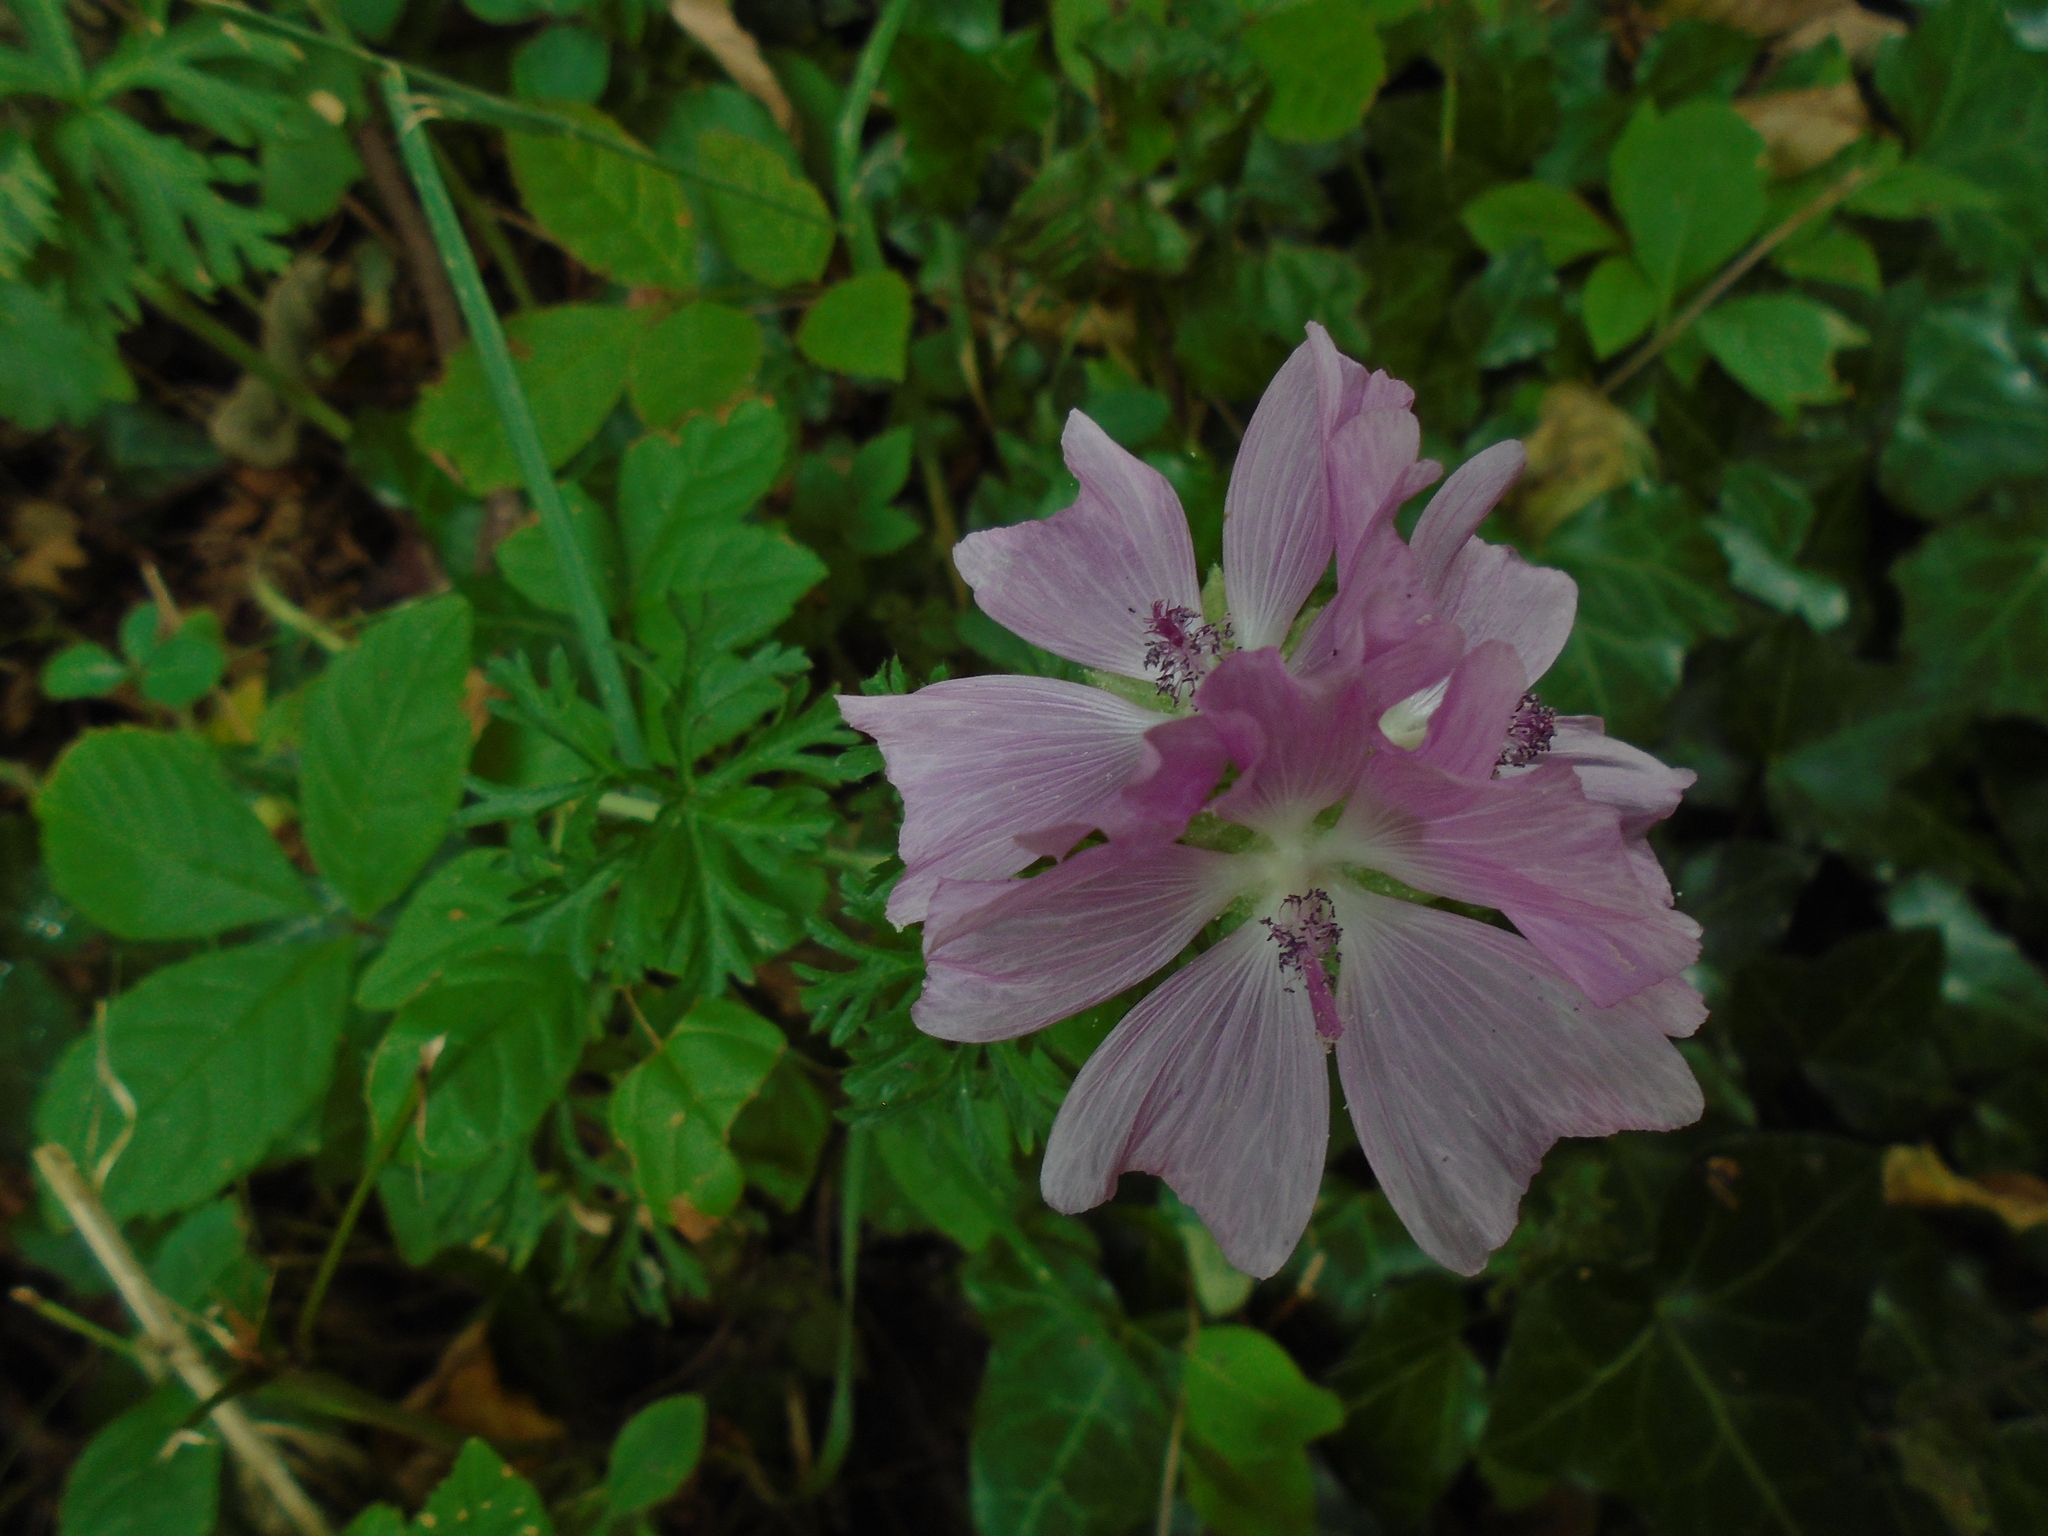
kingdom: Plantae
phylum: Tracheophyta
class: Magnoliopsida
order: Malvales
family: Malvaceae
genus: Malva
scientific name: Malva moschata
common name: Musk mallow
